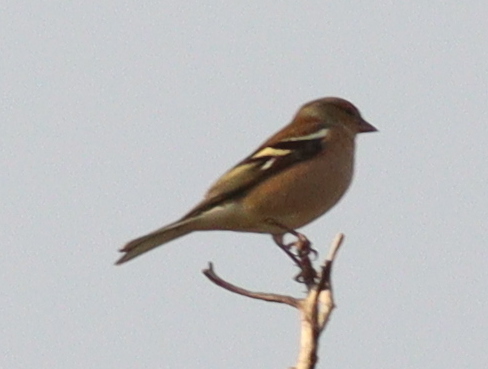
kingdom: Animalia
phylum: Chordata
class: Aves
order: Passeriformes
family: Fringillidae
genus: Fringilla
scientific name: Fringilla coelebs
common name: Common chaffinch
